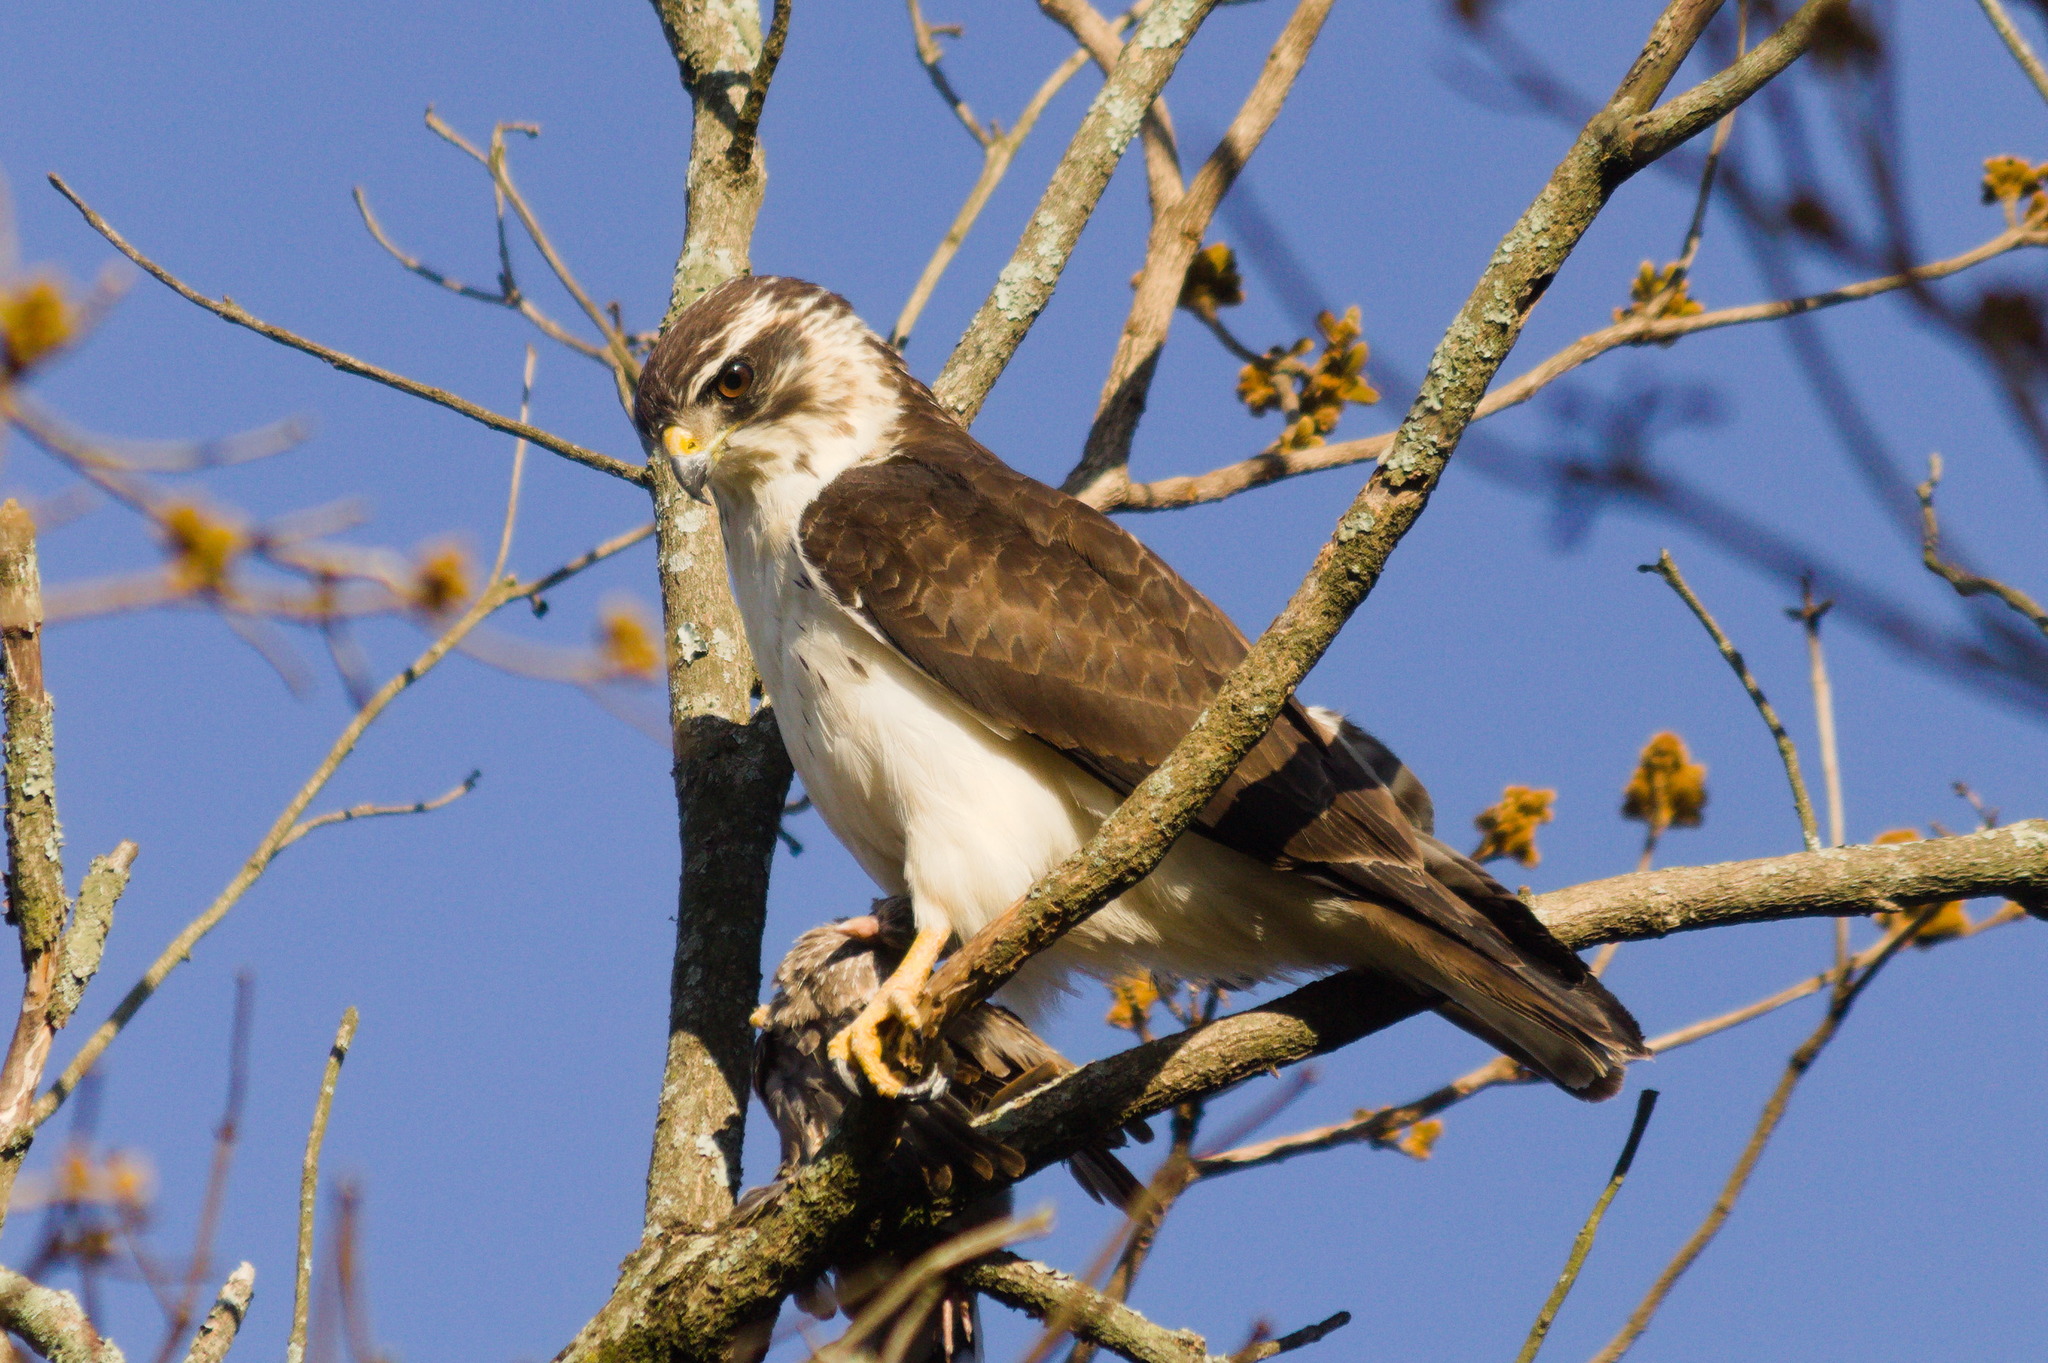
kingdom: Animalia
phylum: Chordata
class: Aves
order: Accipitriformes
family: Accipitridae
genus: Buteo
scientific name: Buteo brachyurus
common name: Short-tailed hawk
